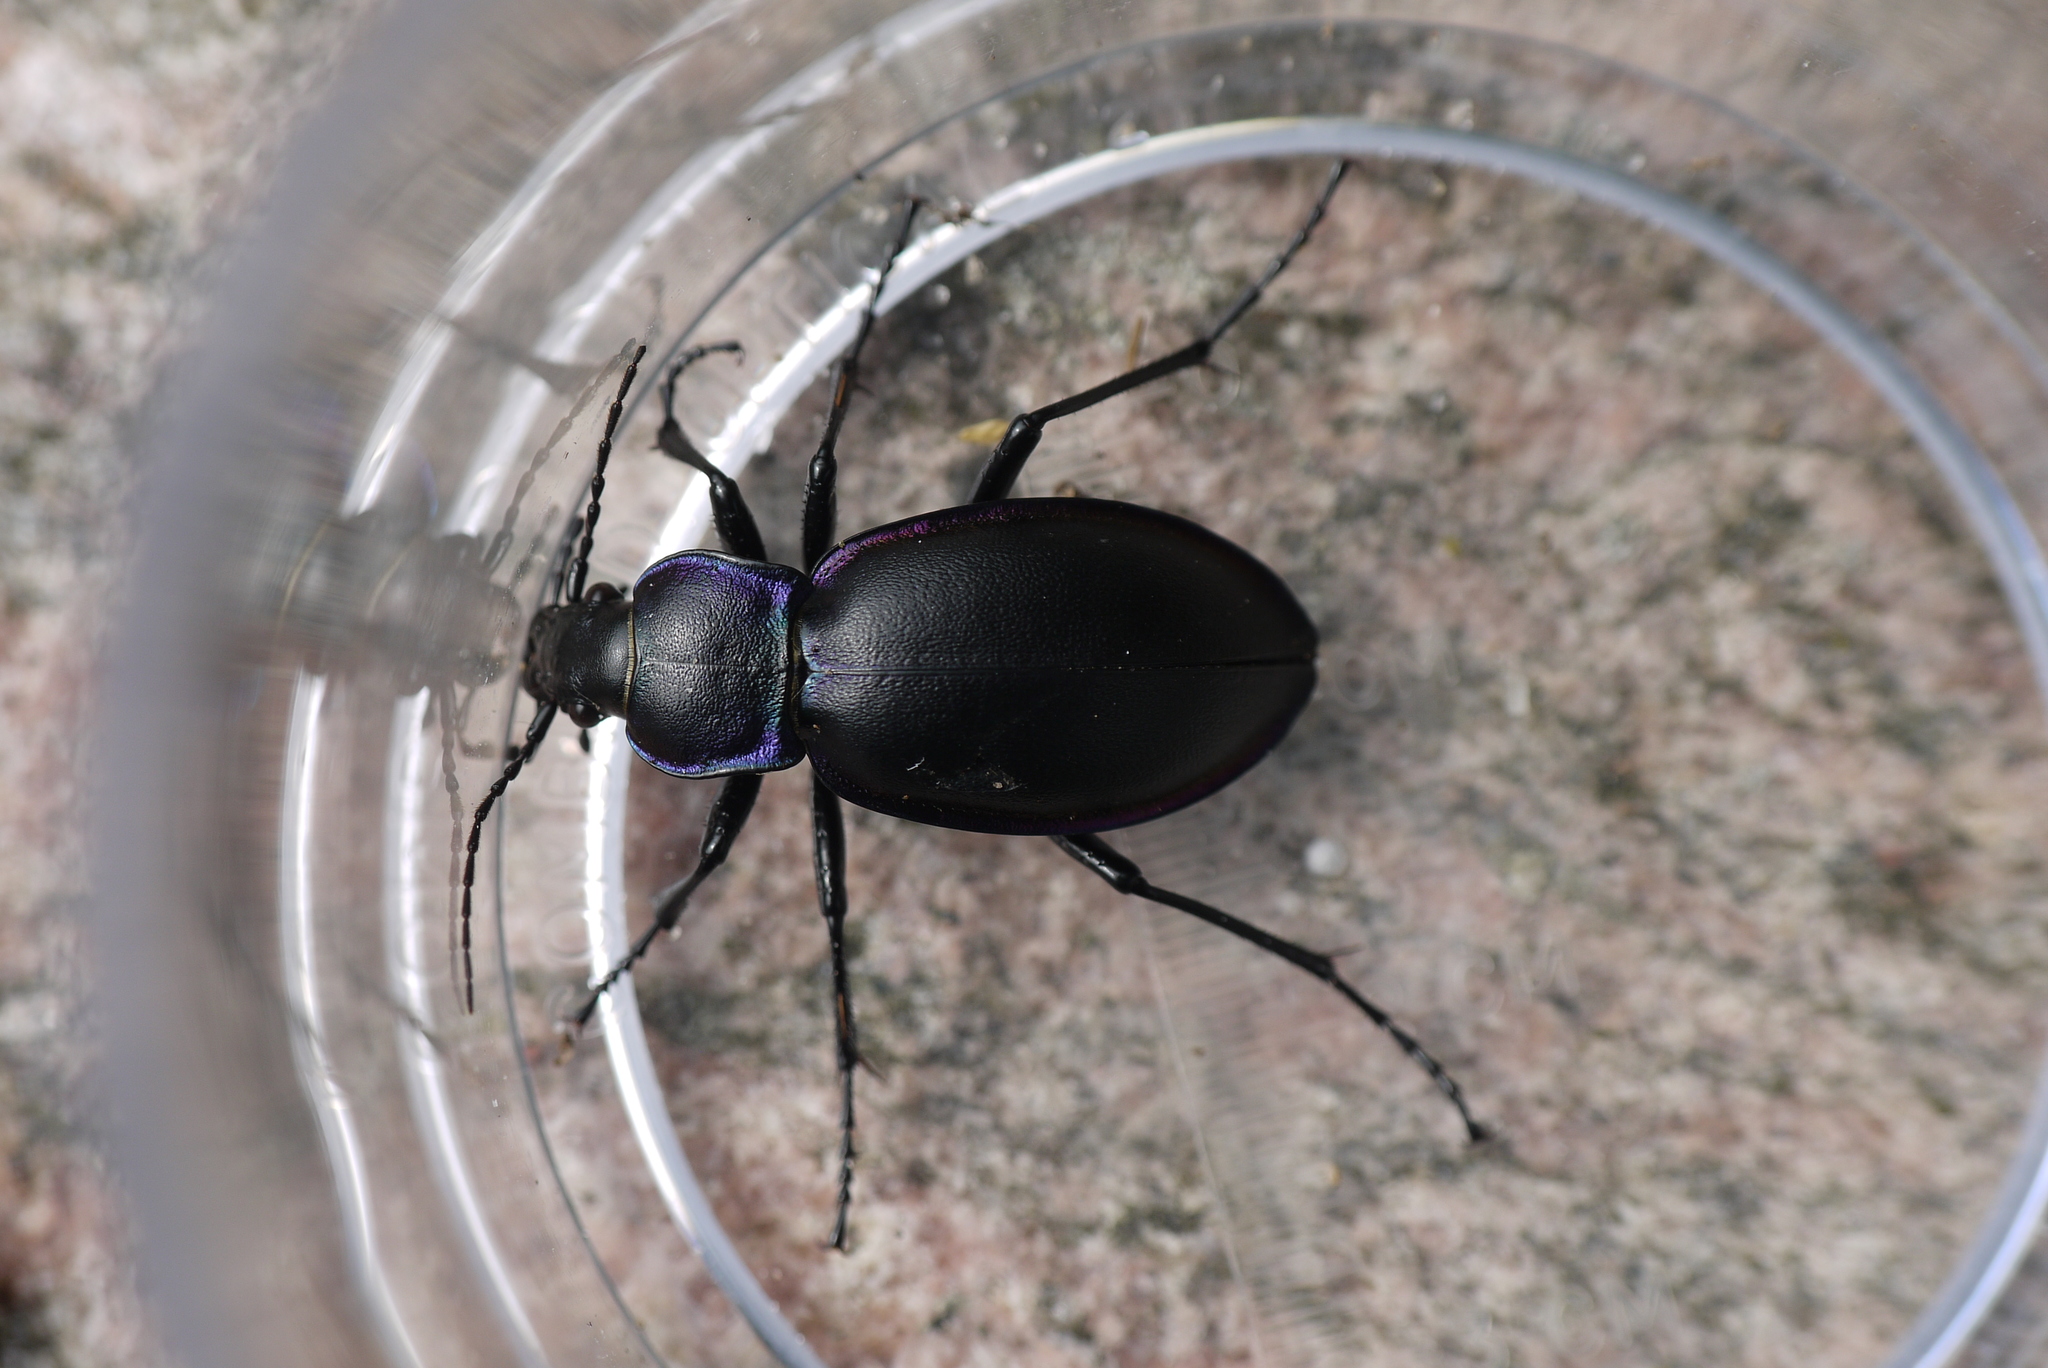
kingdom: Animalia
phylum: Arthropoda
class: Insecta
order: Coleoptera
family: Carabidae
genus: Carabus
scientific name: Carabus violaceus
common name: Violet ground beetle
